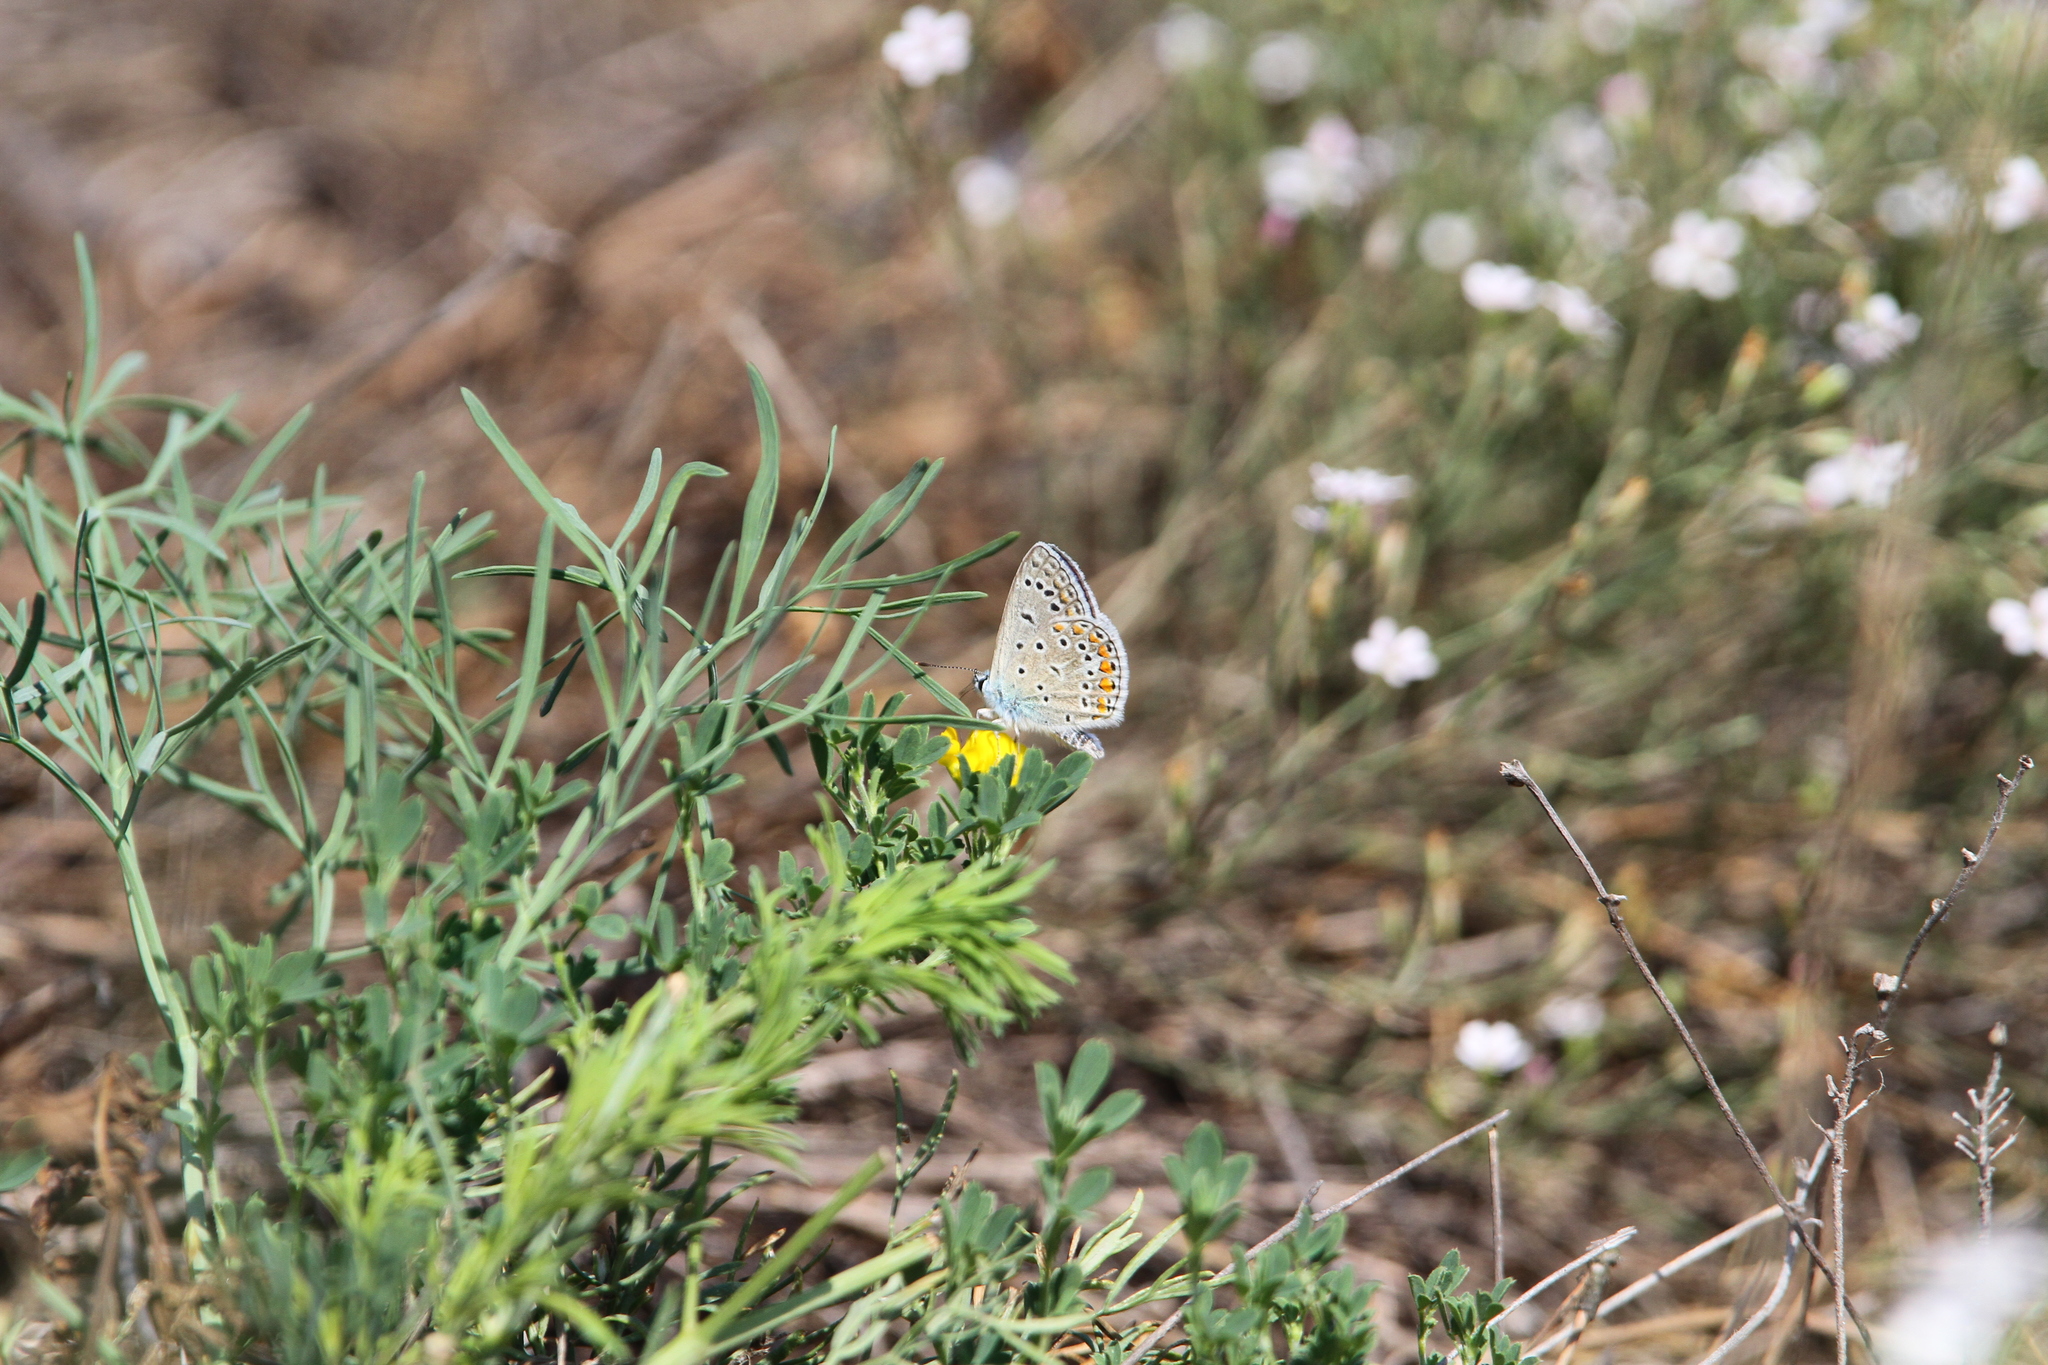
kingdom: Animalia
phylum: Arthropoda
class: Insecta
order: Lepidoptera
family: Lycaenidae
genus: Polyommatus
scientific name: Polyommatus icarus
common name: Common blue
